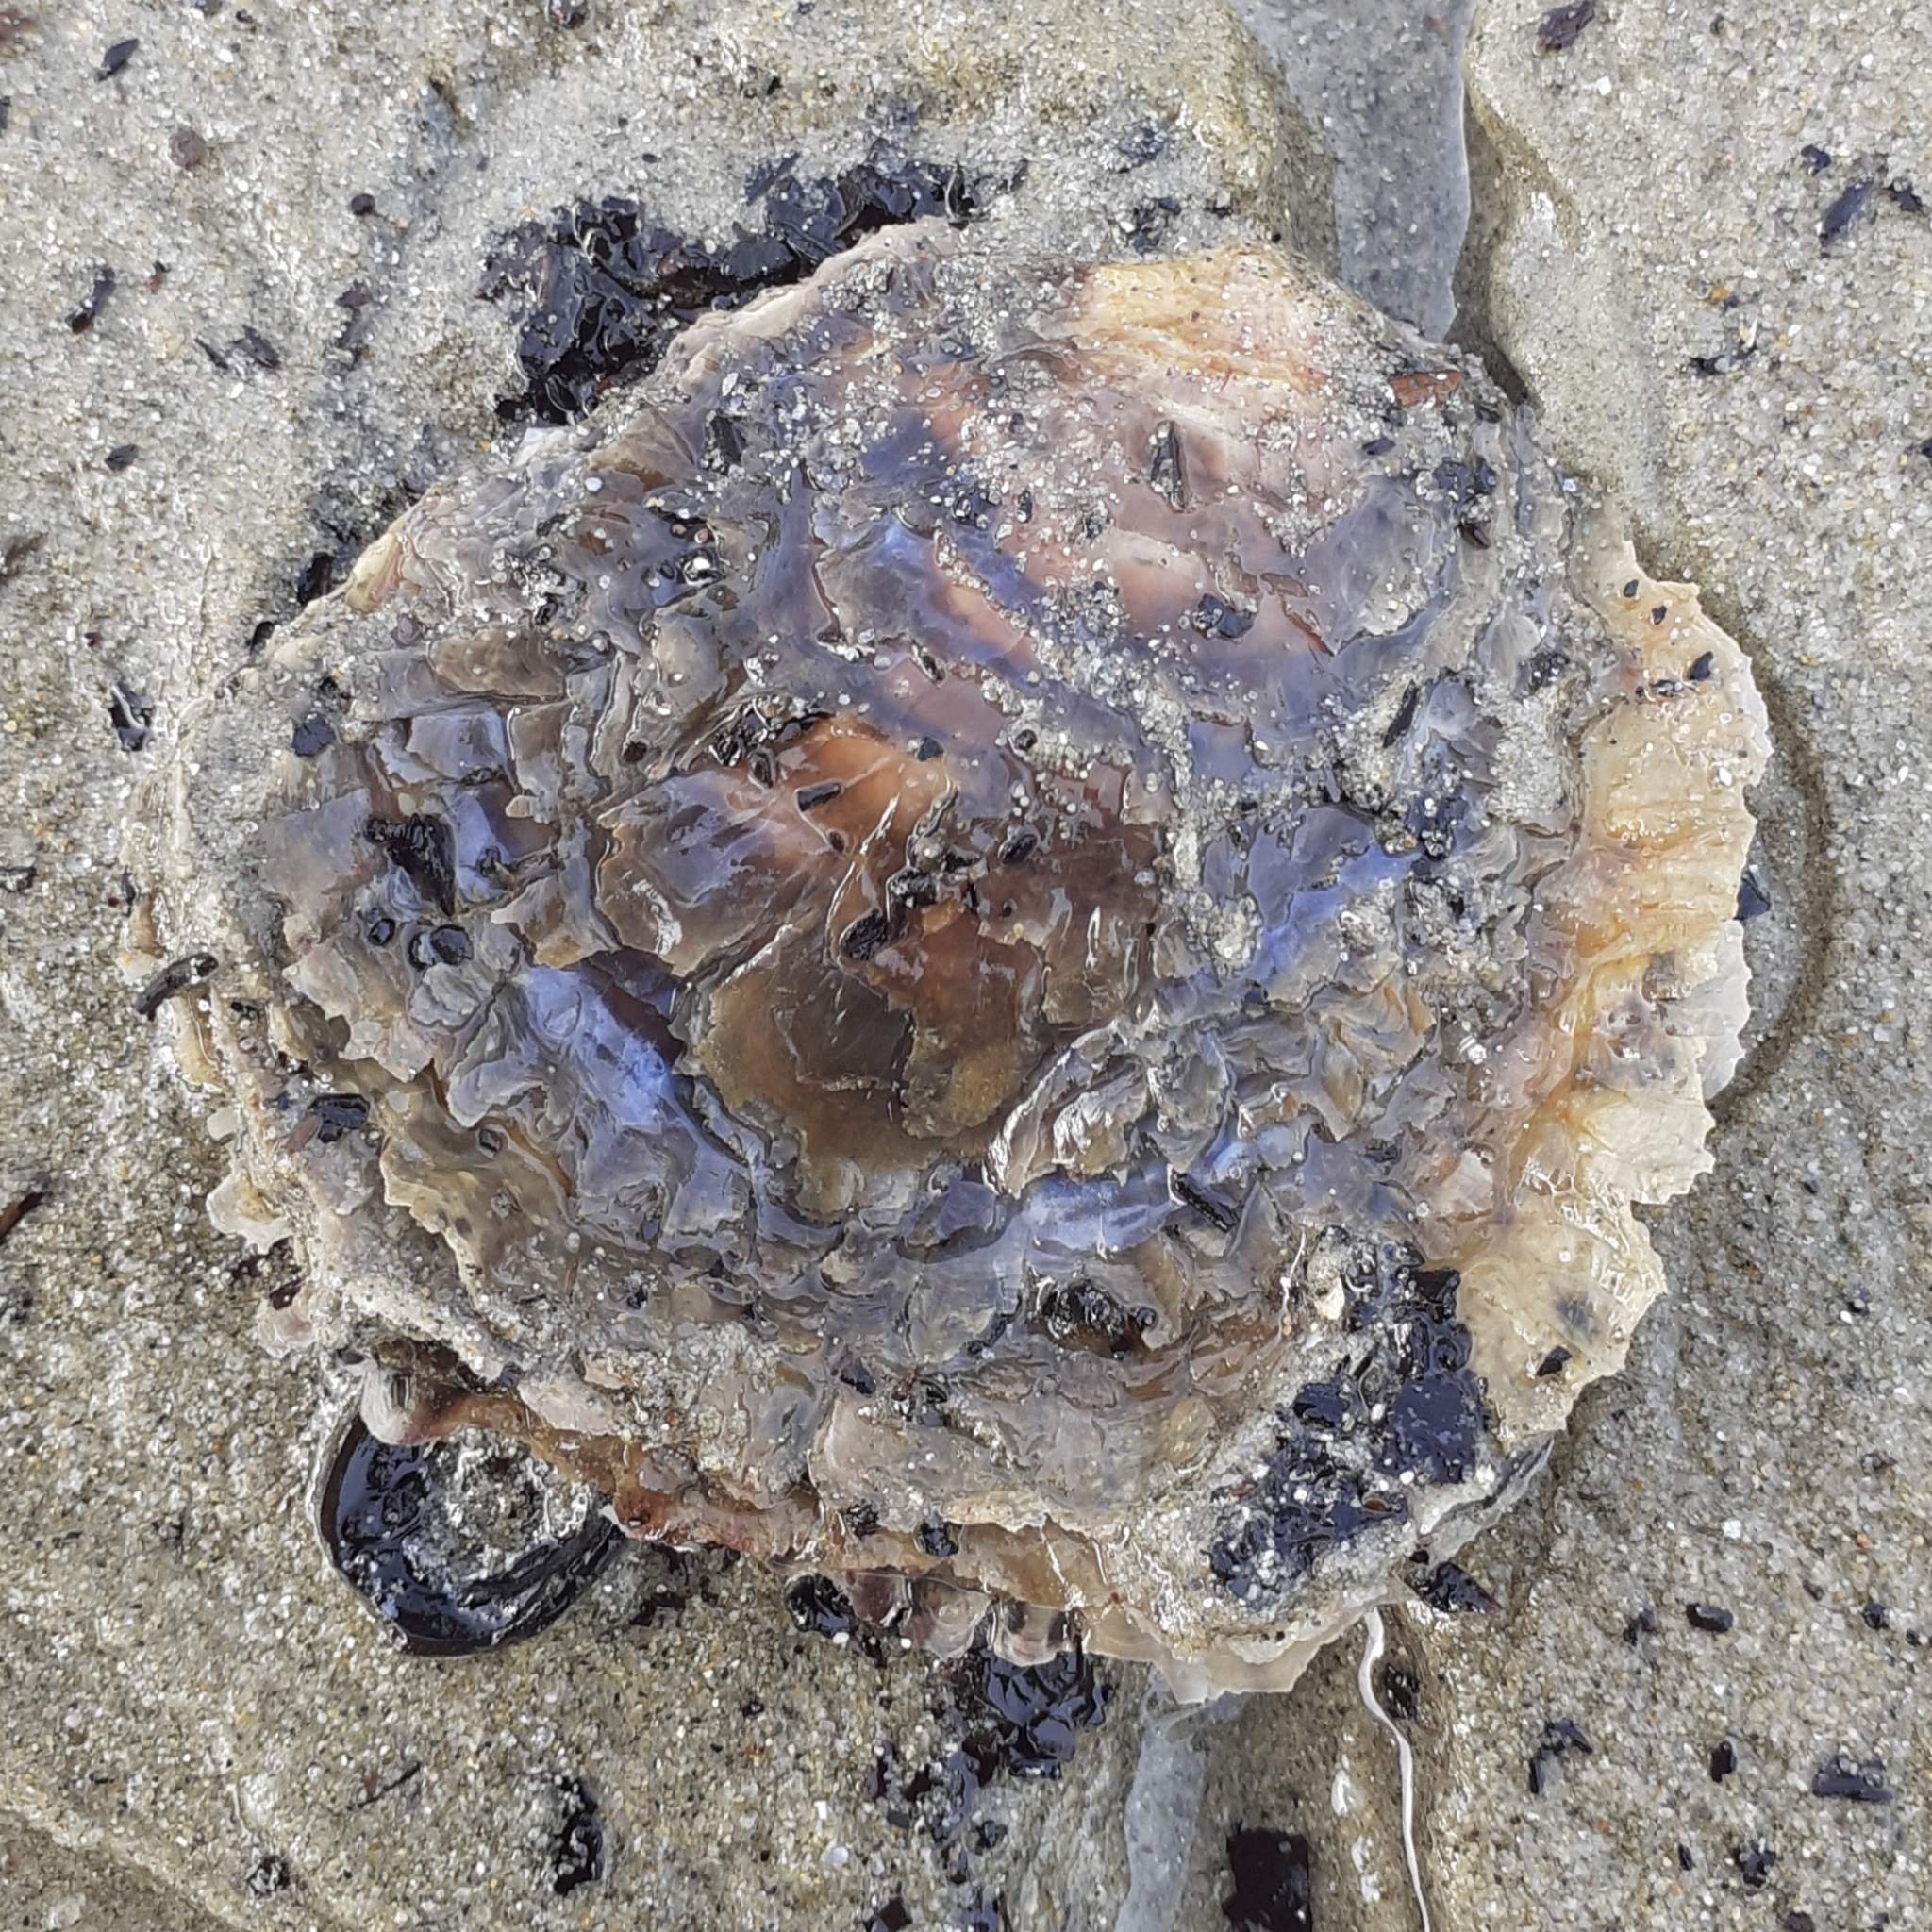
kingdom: Animalia
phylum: Mollusca
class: Bivalvia
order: Ostreida
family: Ostreidae
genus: Ostrea
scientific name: Ostrea edulis
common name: Flat oyster
